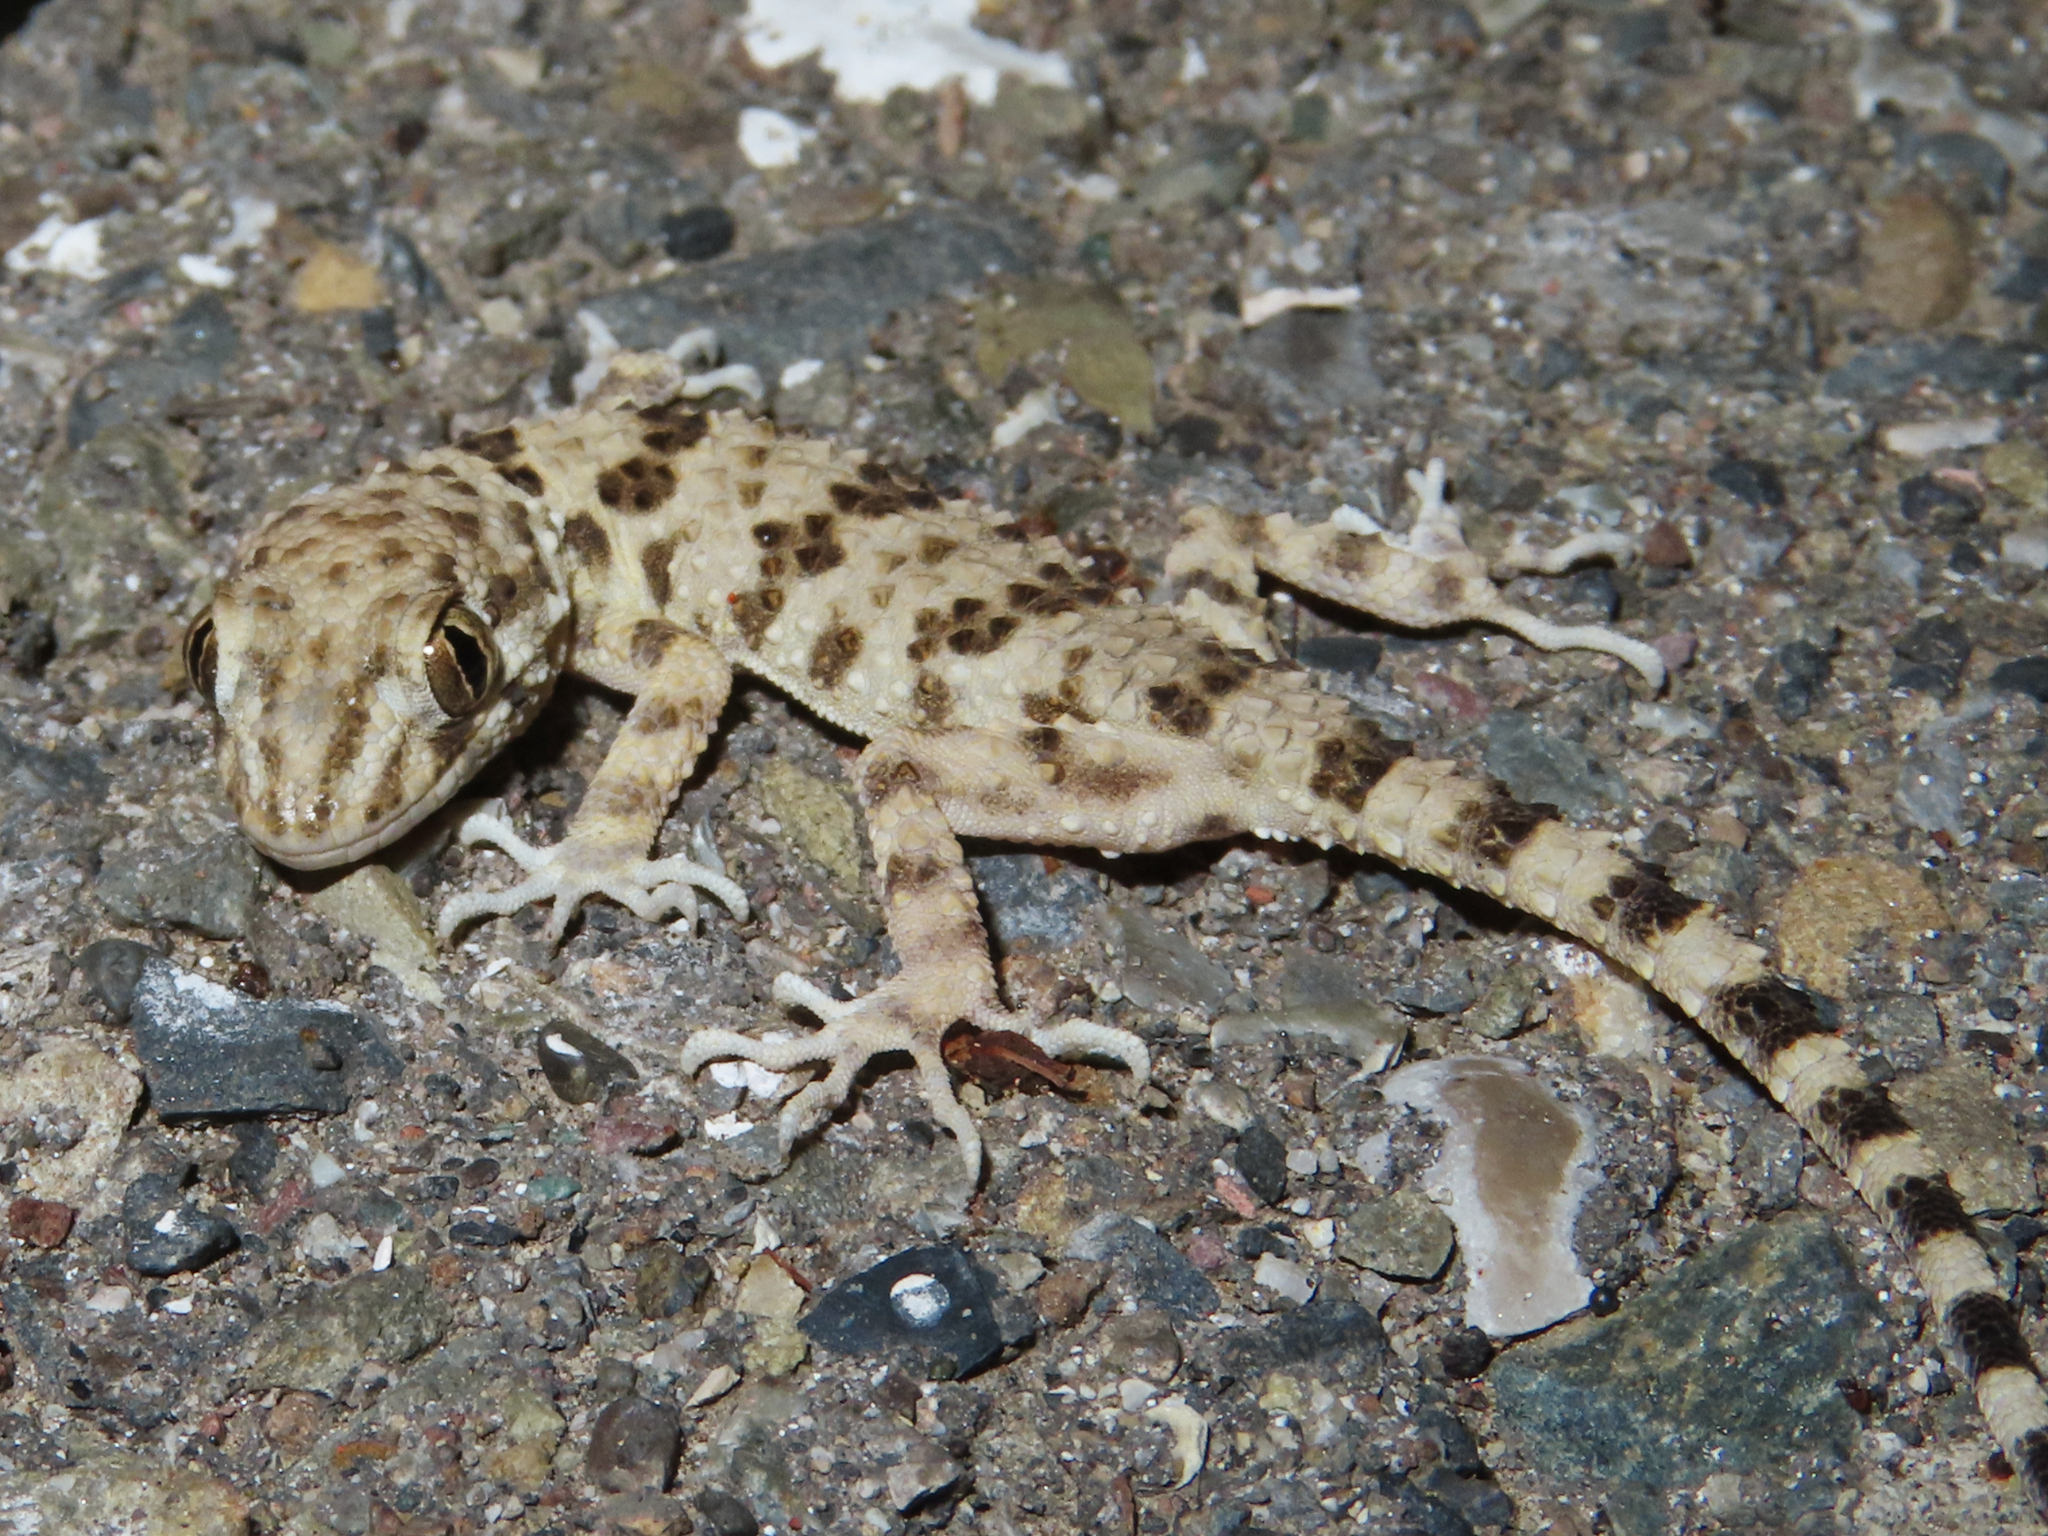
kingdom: Animalia
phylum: Chordata
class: Squamata
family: Gekkonidae
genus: Tenuidactylus
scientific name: Tenuidactylus caspius
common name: Caspian bent-toed gecko
